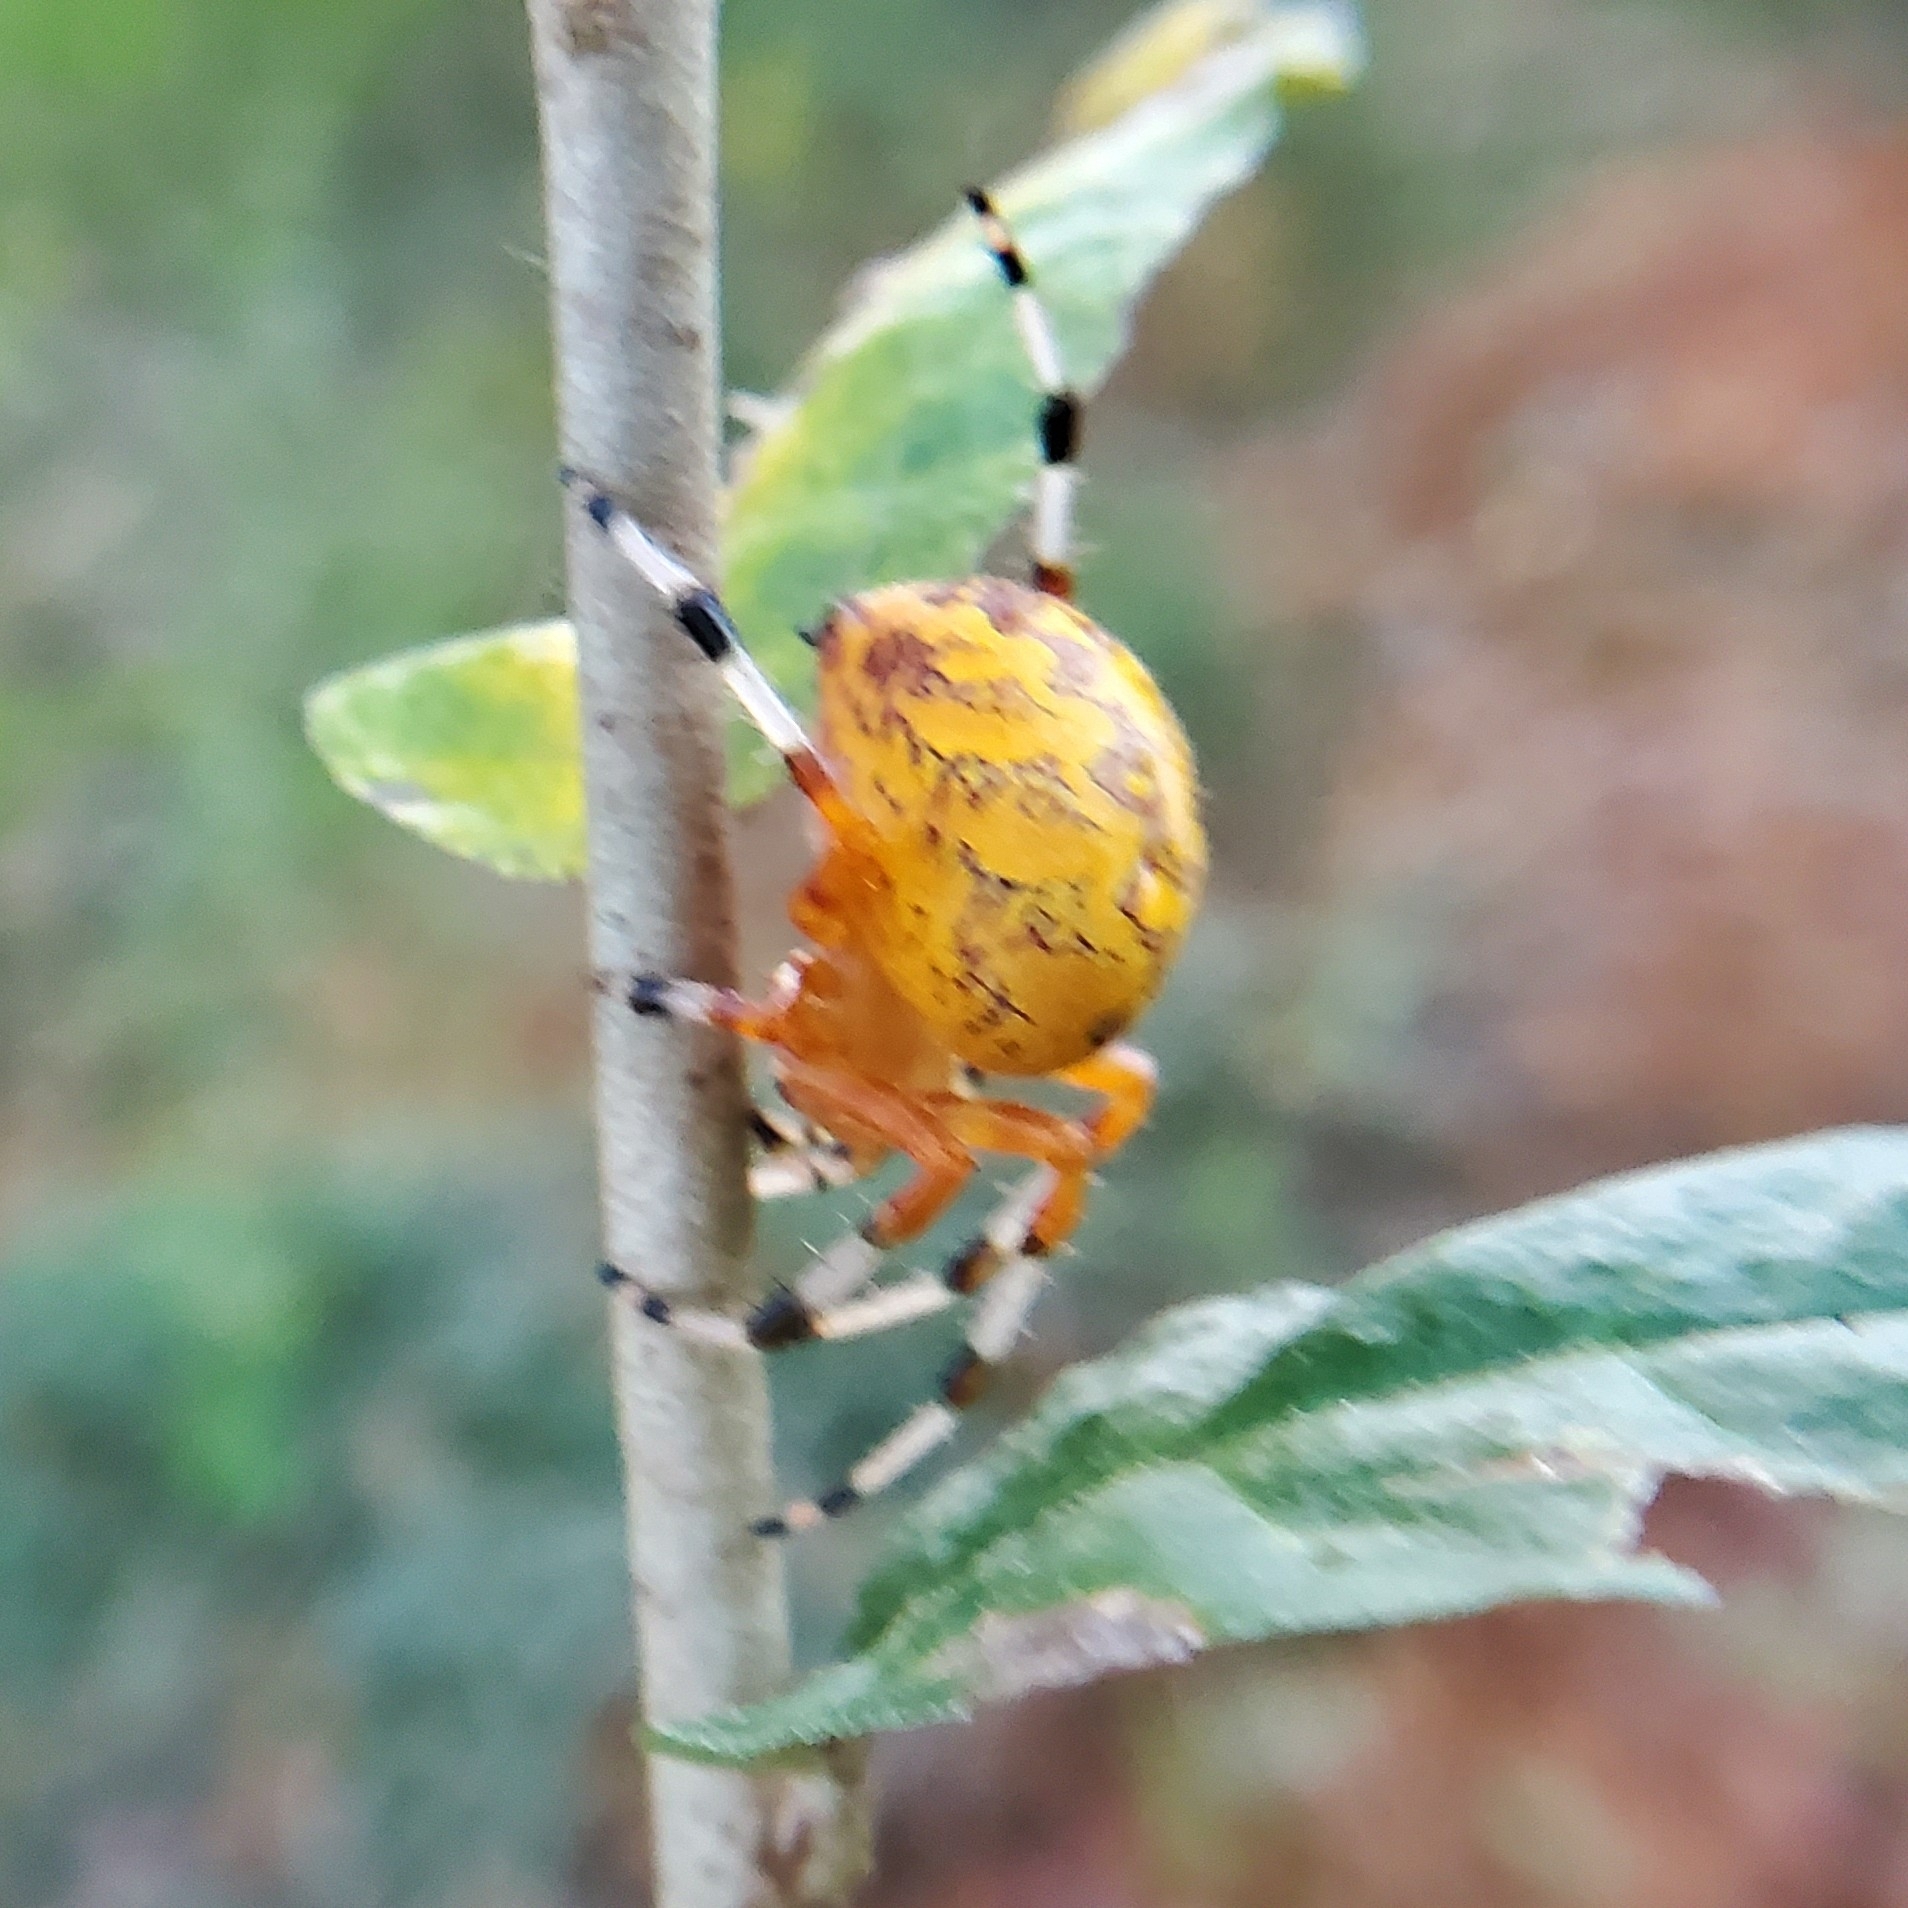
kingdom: Animalia
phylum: Arthropoda
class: Arachnida
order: Araneae
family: Araneidae
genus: Araneus
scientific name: Araneus marmoreus
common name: Marbled orbweaver
